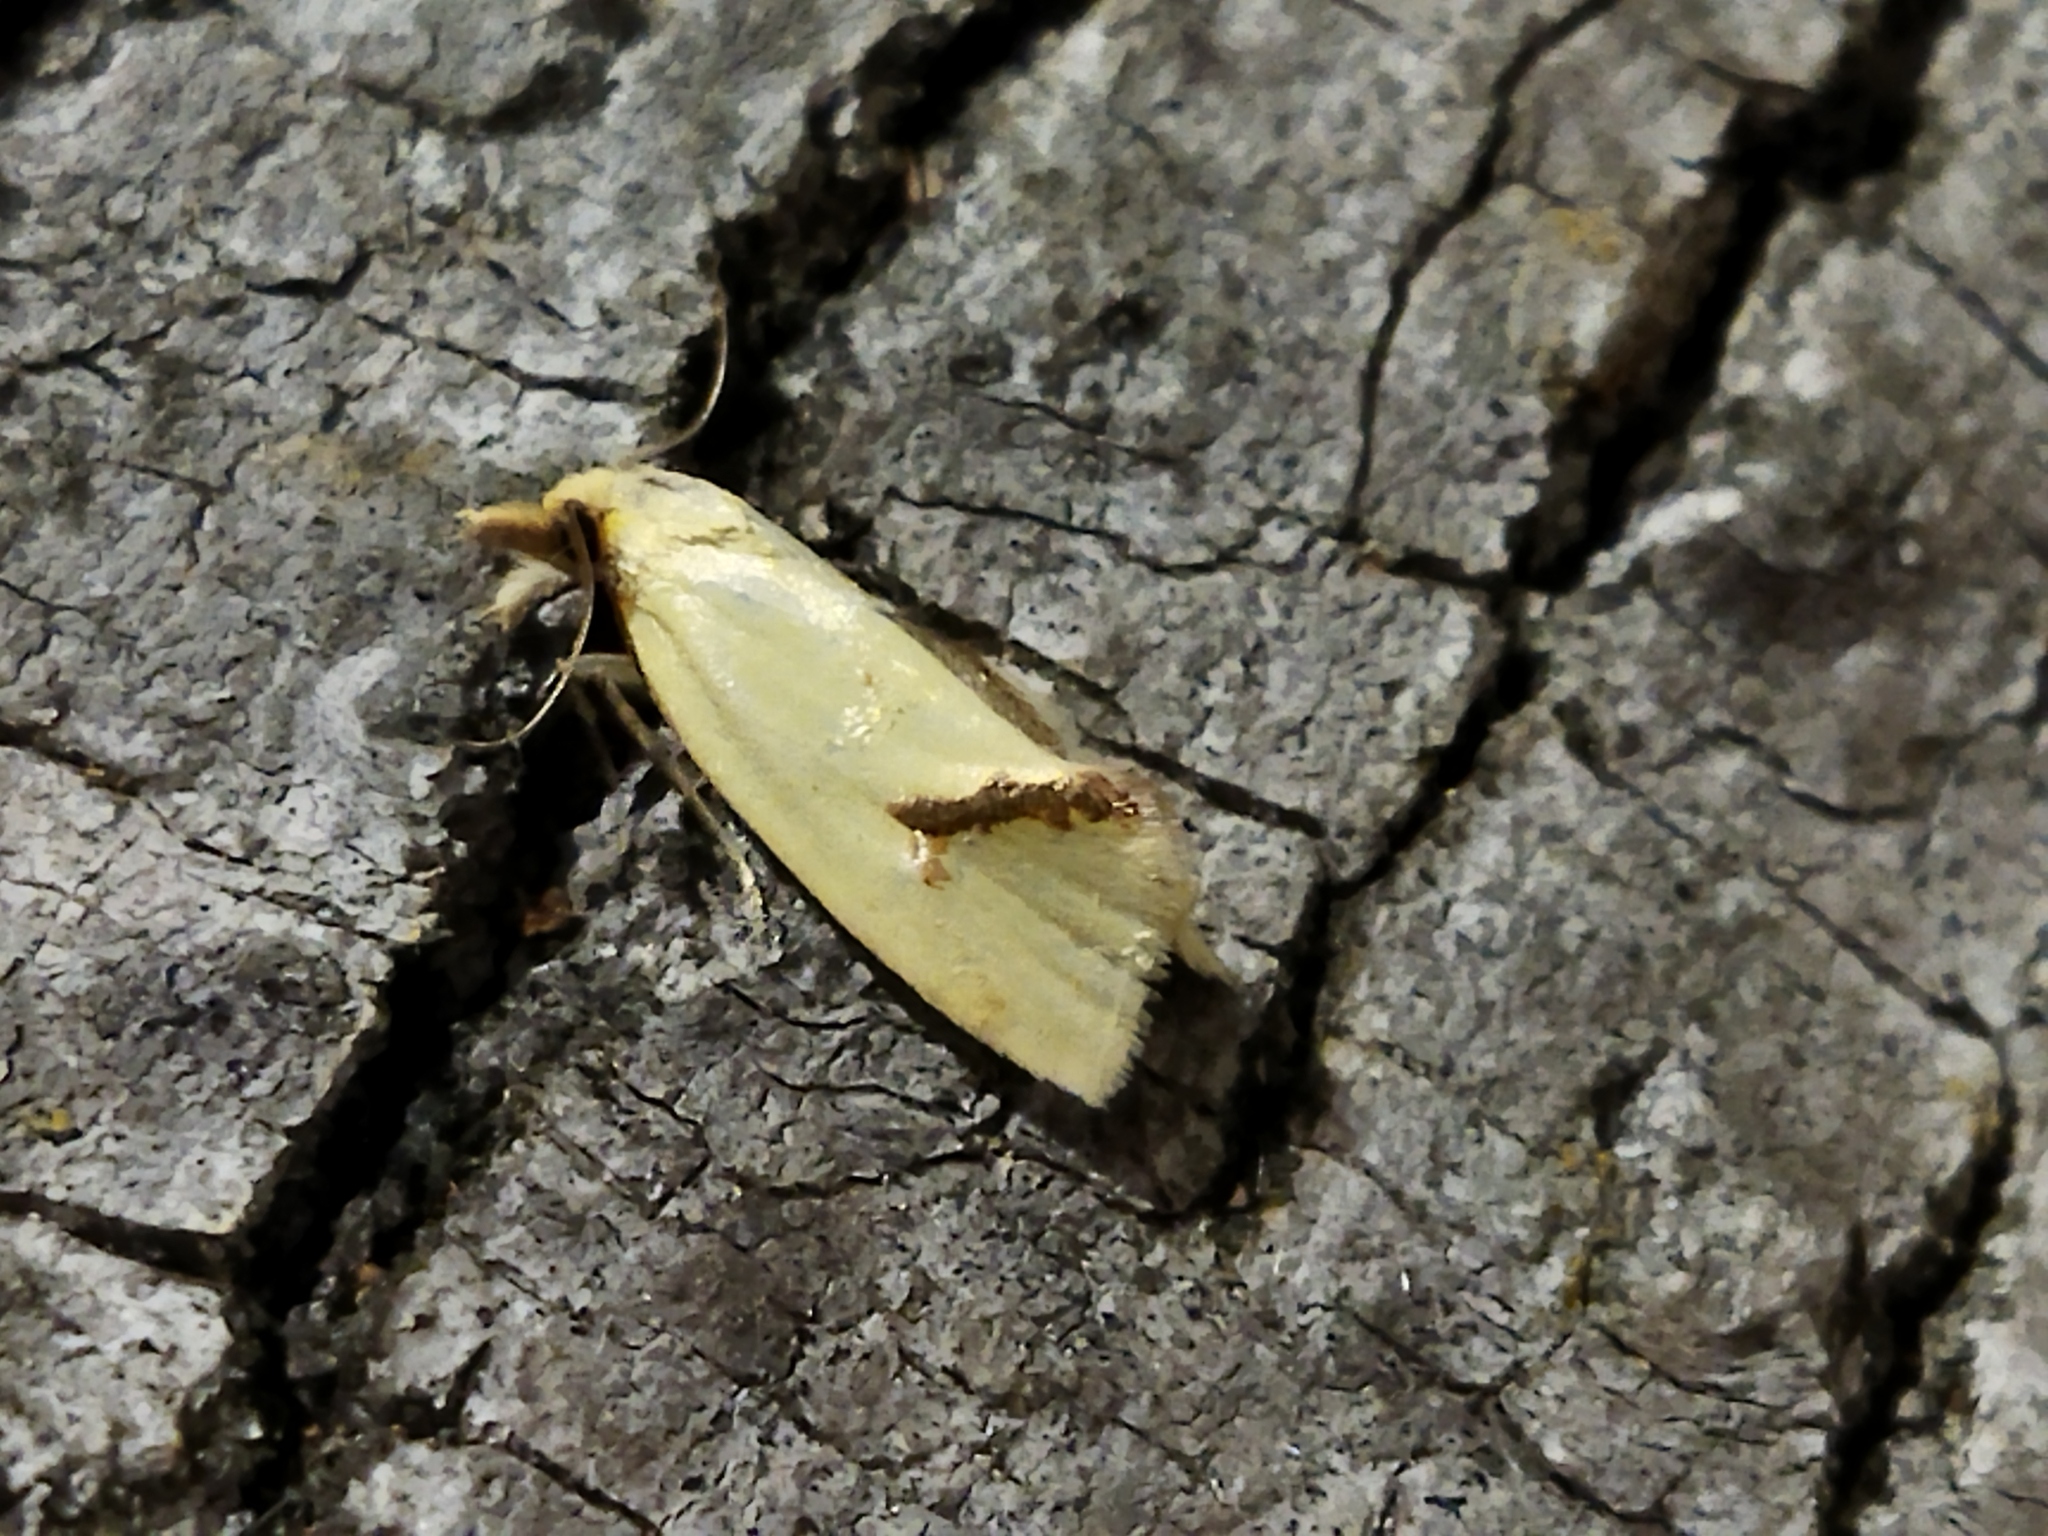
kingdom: Animalia
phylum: Arthropoda
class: Insecta
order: Lepidoptera
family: Tortricidae
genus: Agapeta
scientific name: Agapeta hamana
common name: Common yellow conch
